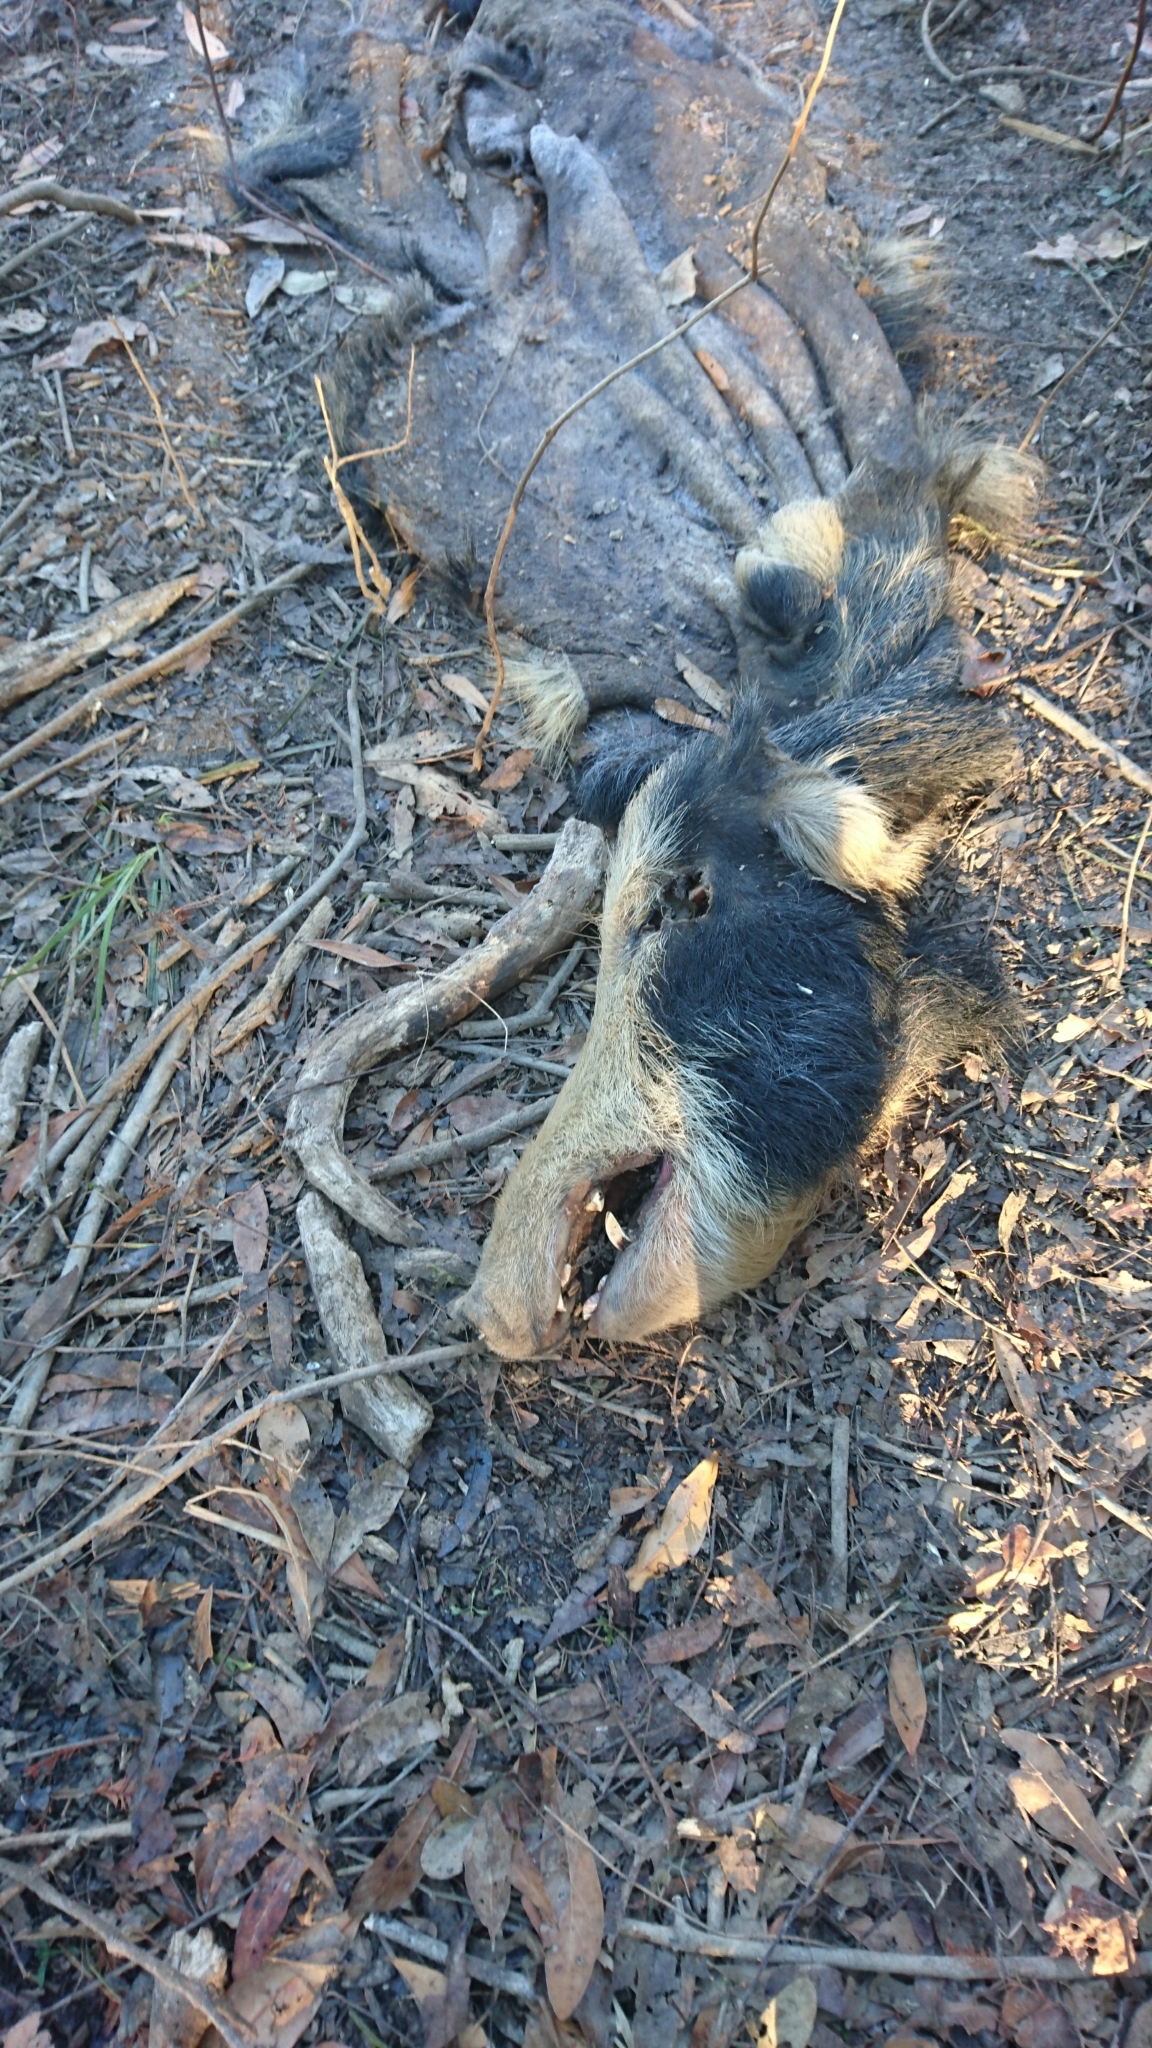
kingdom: Animalia
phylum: Chordata
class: Mammalia
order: Artiodactyla
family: Suidae
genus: Sus
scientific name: Sus scrofa
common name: Wild boar
